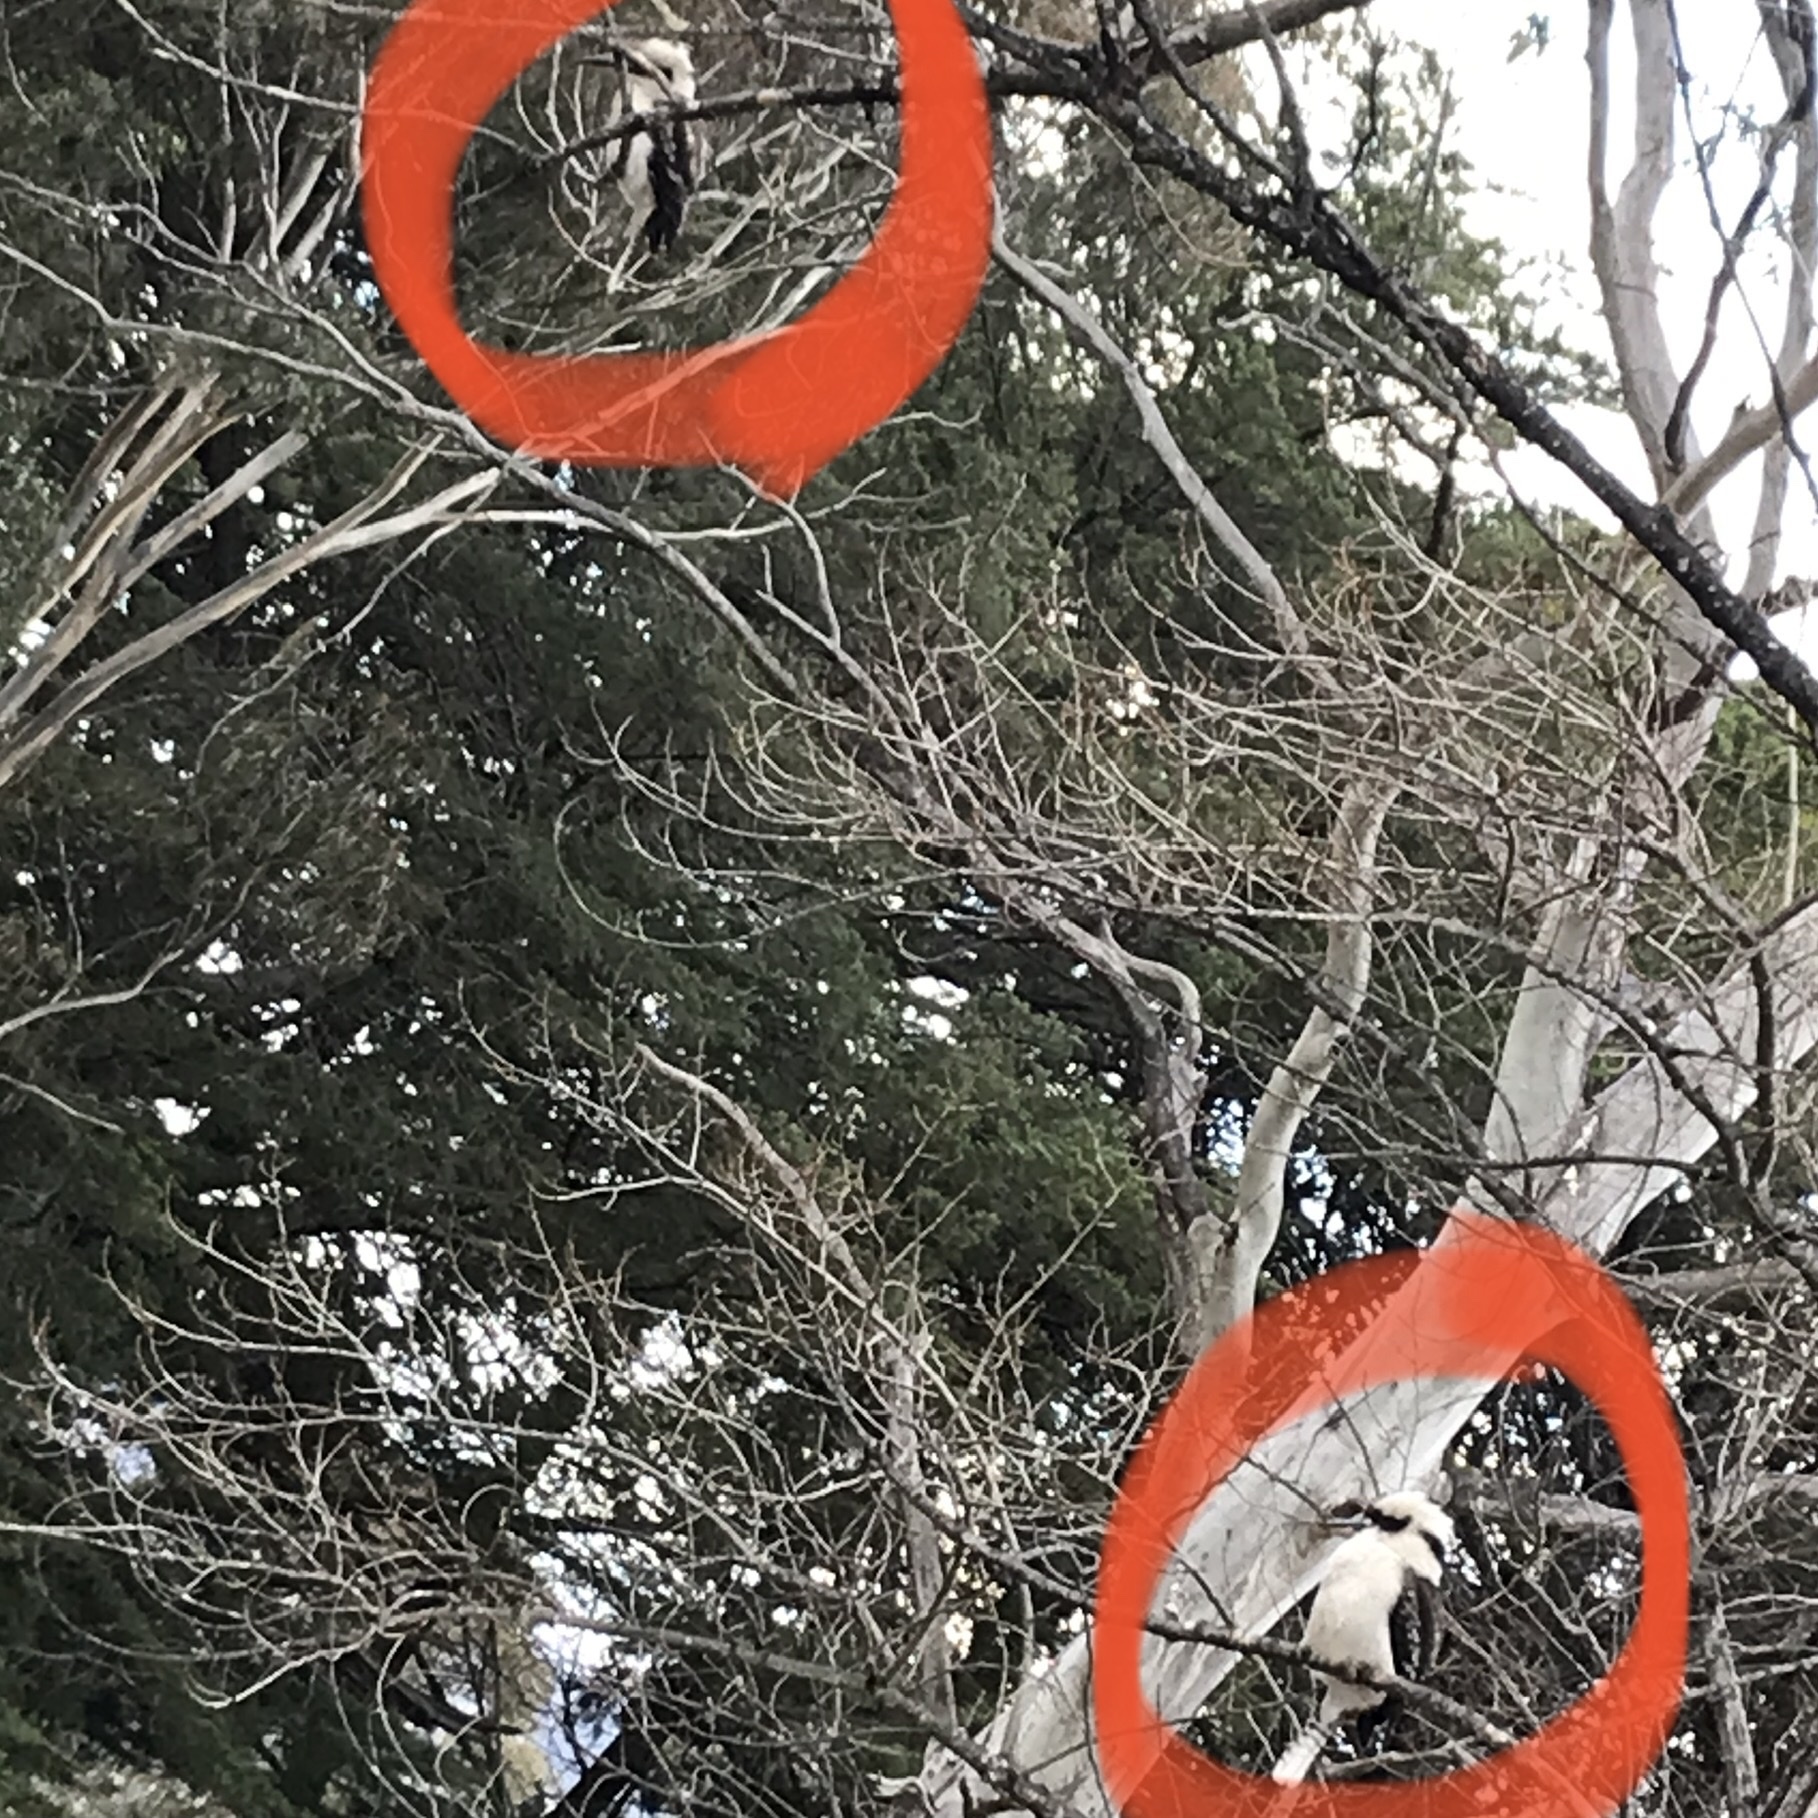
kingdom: Animalia
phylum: Chordata
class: Aves
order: Coraciiformes
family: Alcedinidae
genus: Dacelo
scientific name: Dacelo novaeguineae
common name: Laughing kookaburra
